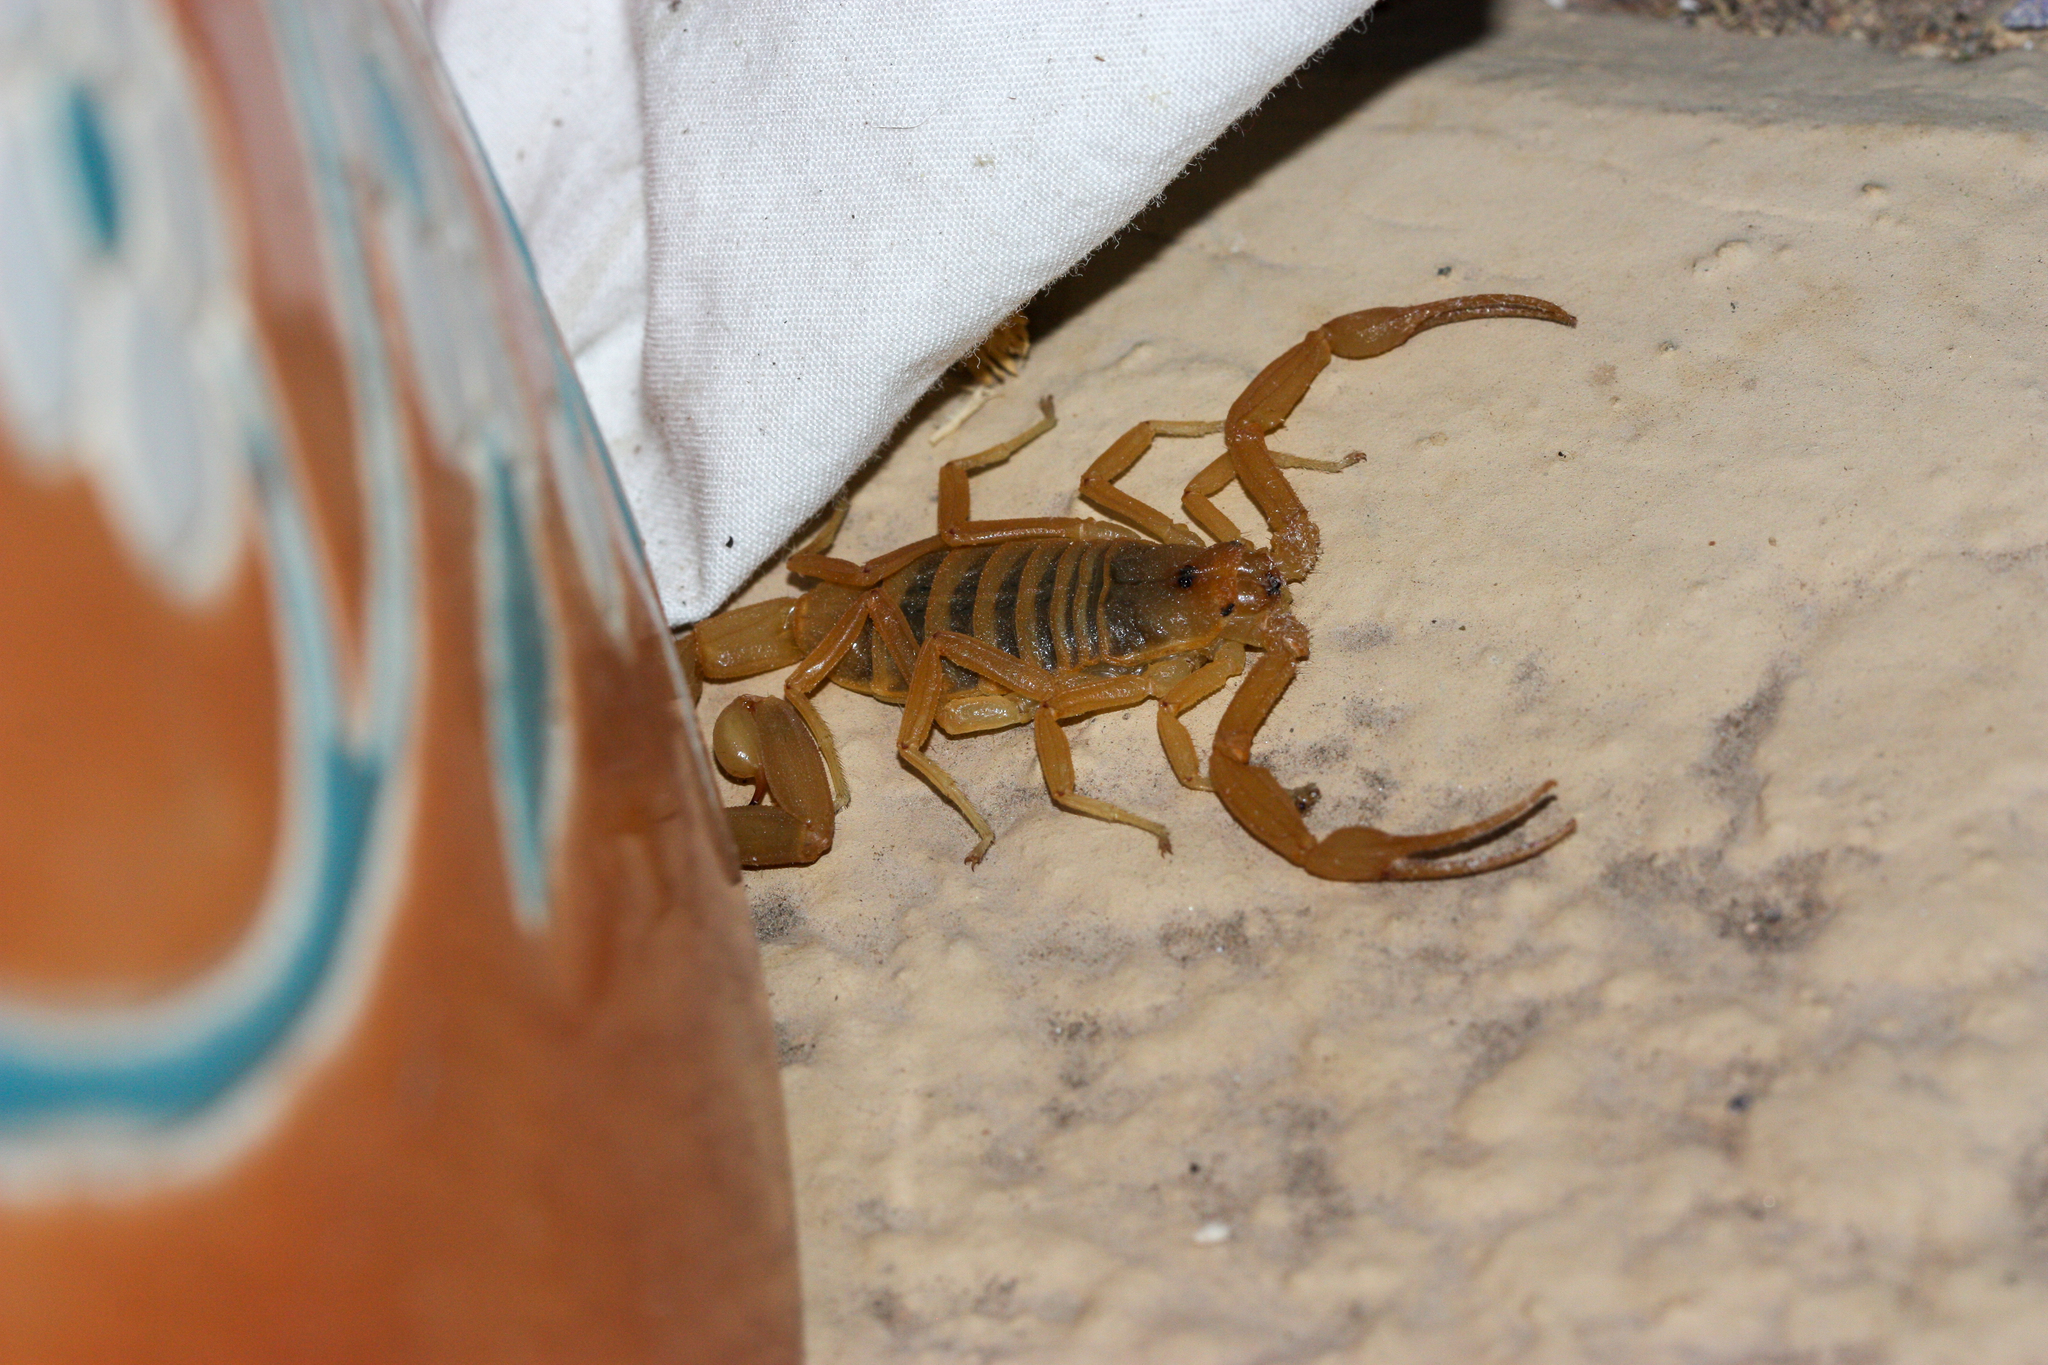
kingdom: Animalia
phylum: Arthropoda
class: Arachnida
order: Scorpiones
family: Buthidae
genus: Centruroides
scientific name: Centruroides sculpturatus
